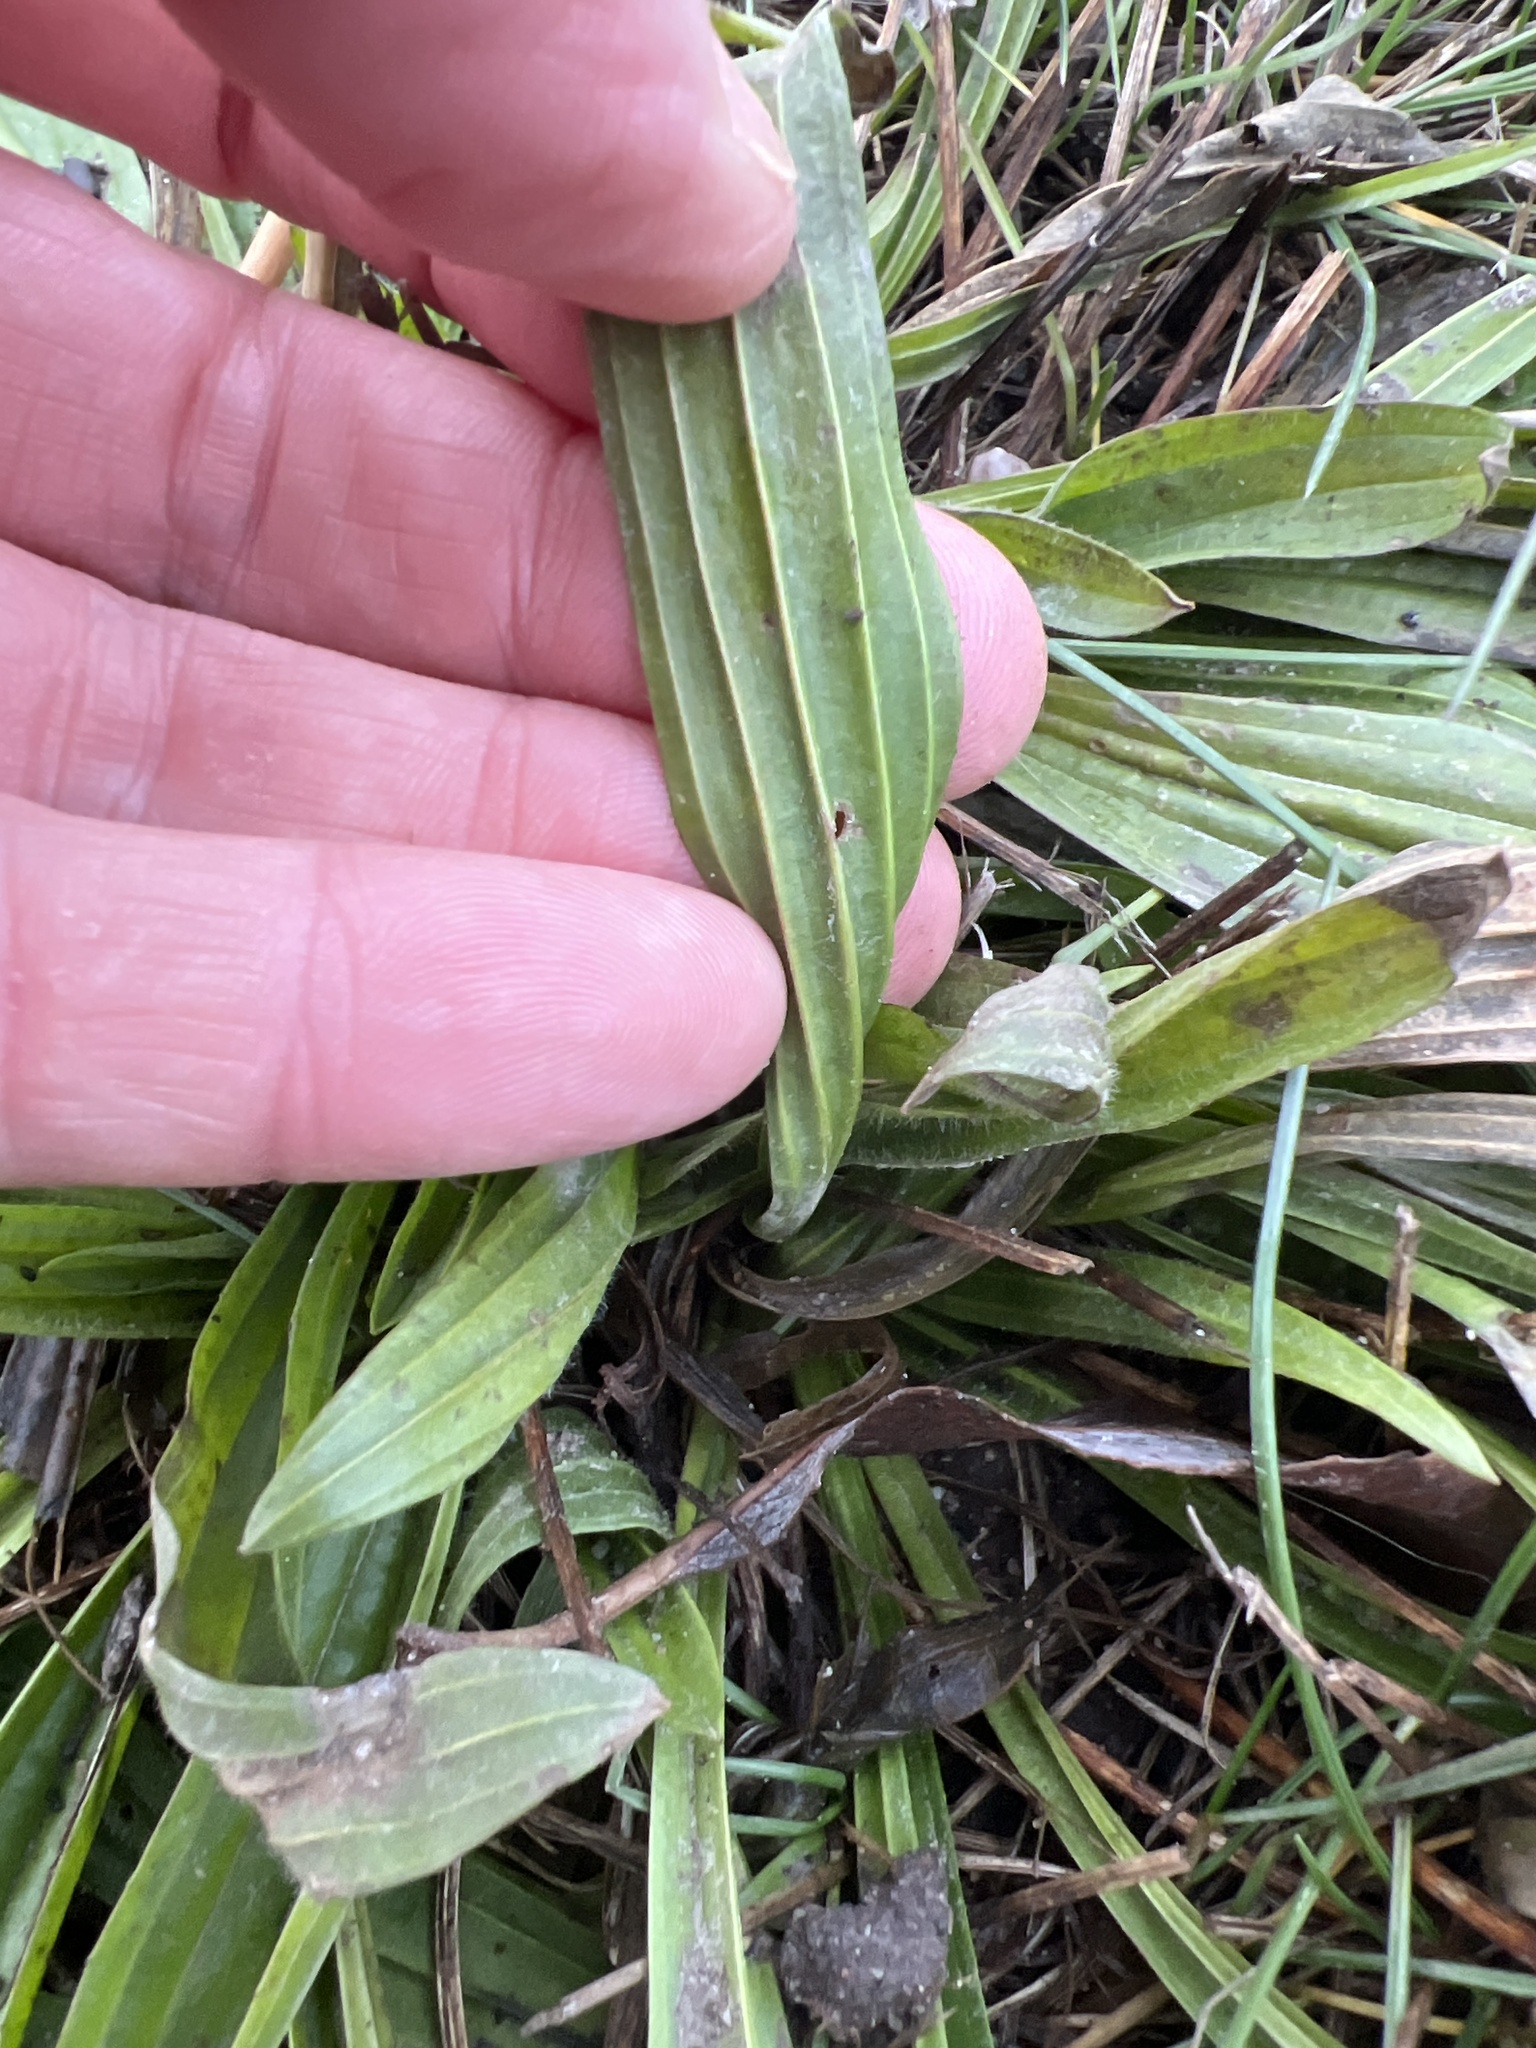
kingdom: Plantae
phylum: Tracheophyta
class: Magnoliopsida
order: Lamiales
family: Plantaginaceae
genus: Plantago
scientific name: Plantago lanceolata
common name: Ribwort plantain
